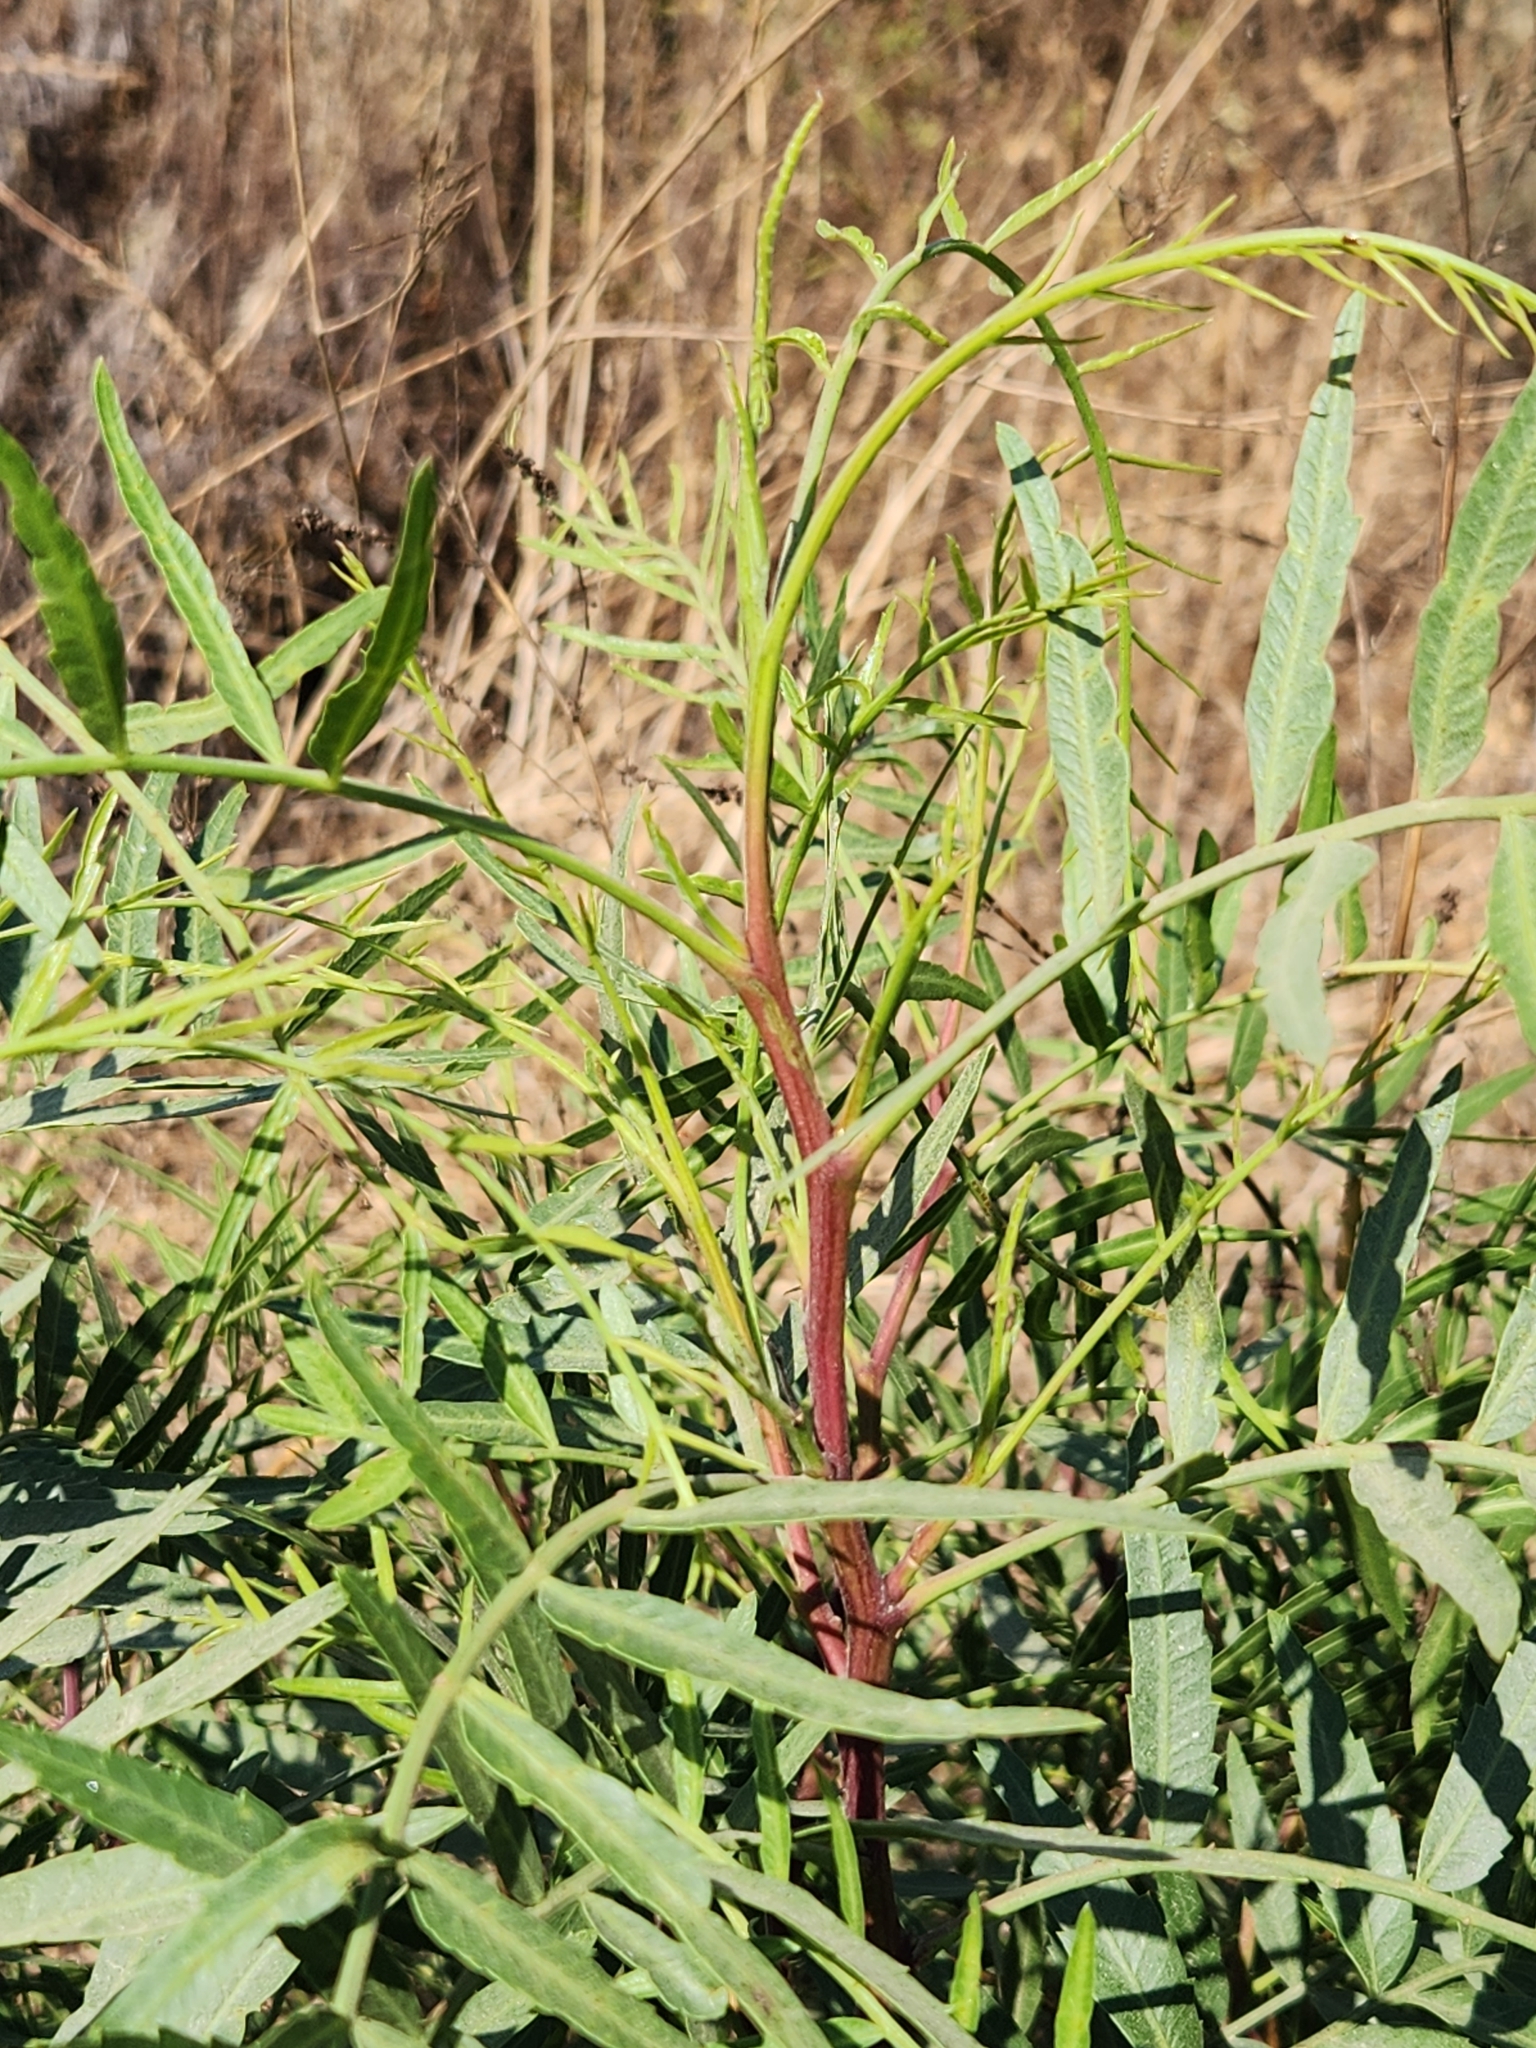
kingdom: Plantae
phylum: Tracheophyta
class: Magnoliopsida
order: Sapindales
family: Anacardiaceae
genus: Schinus
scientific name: Schinus molle
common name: Peruvian peppertree
